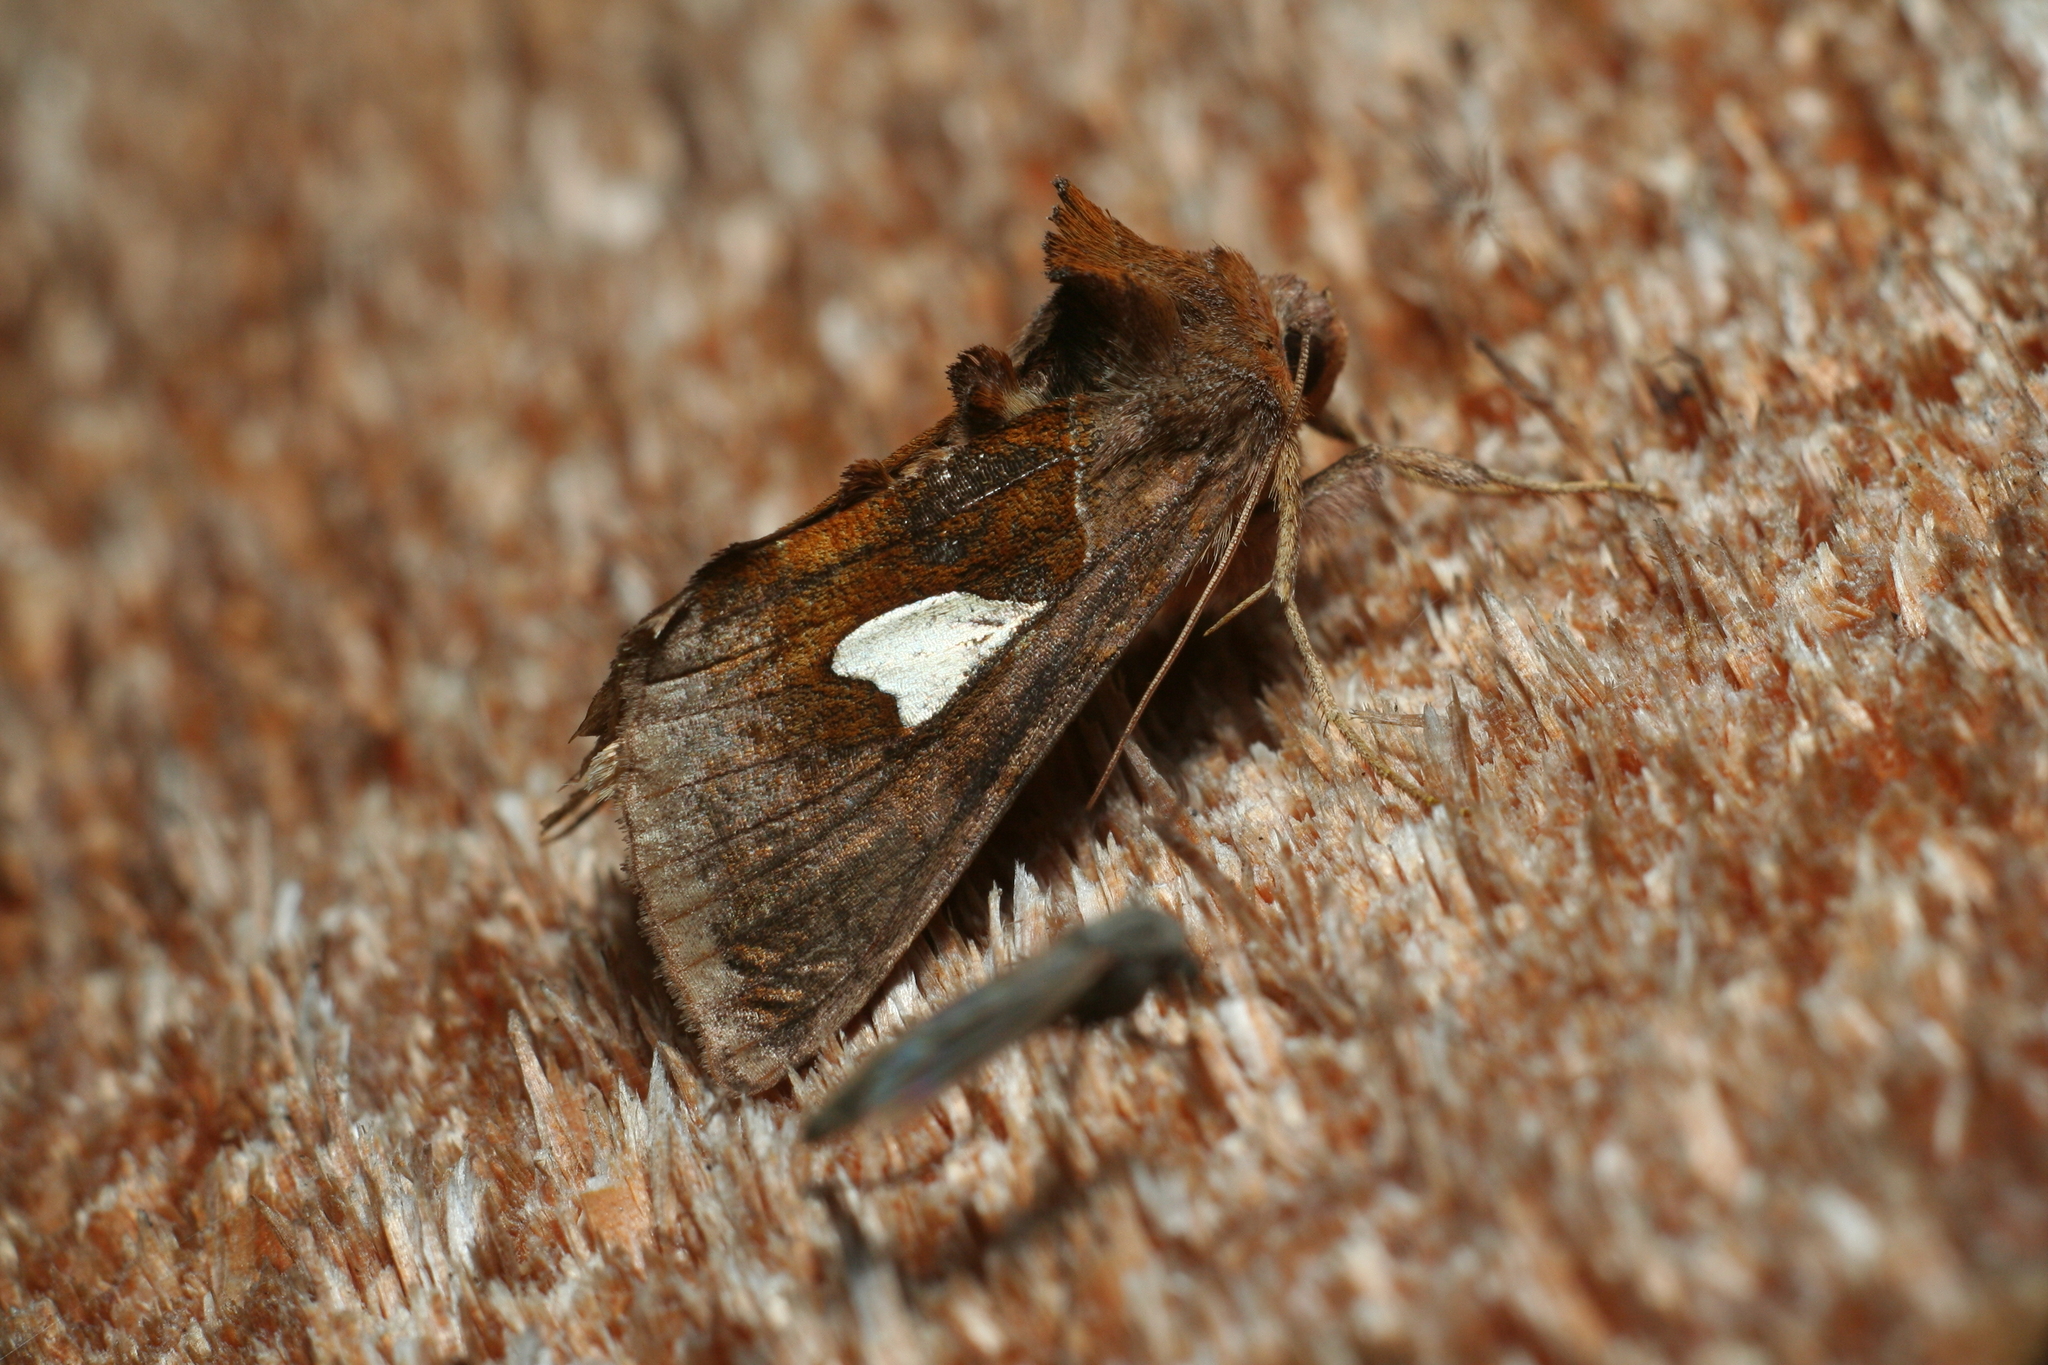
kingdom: Animalia
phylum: Arthropoda
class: Insecta
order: Lepidoptera
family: Noctuidae
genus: Autographa
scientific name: Autographa bractea
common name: Gold spangle
